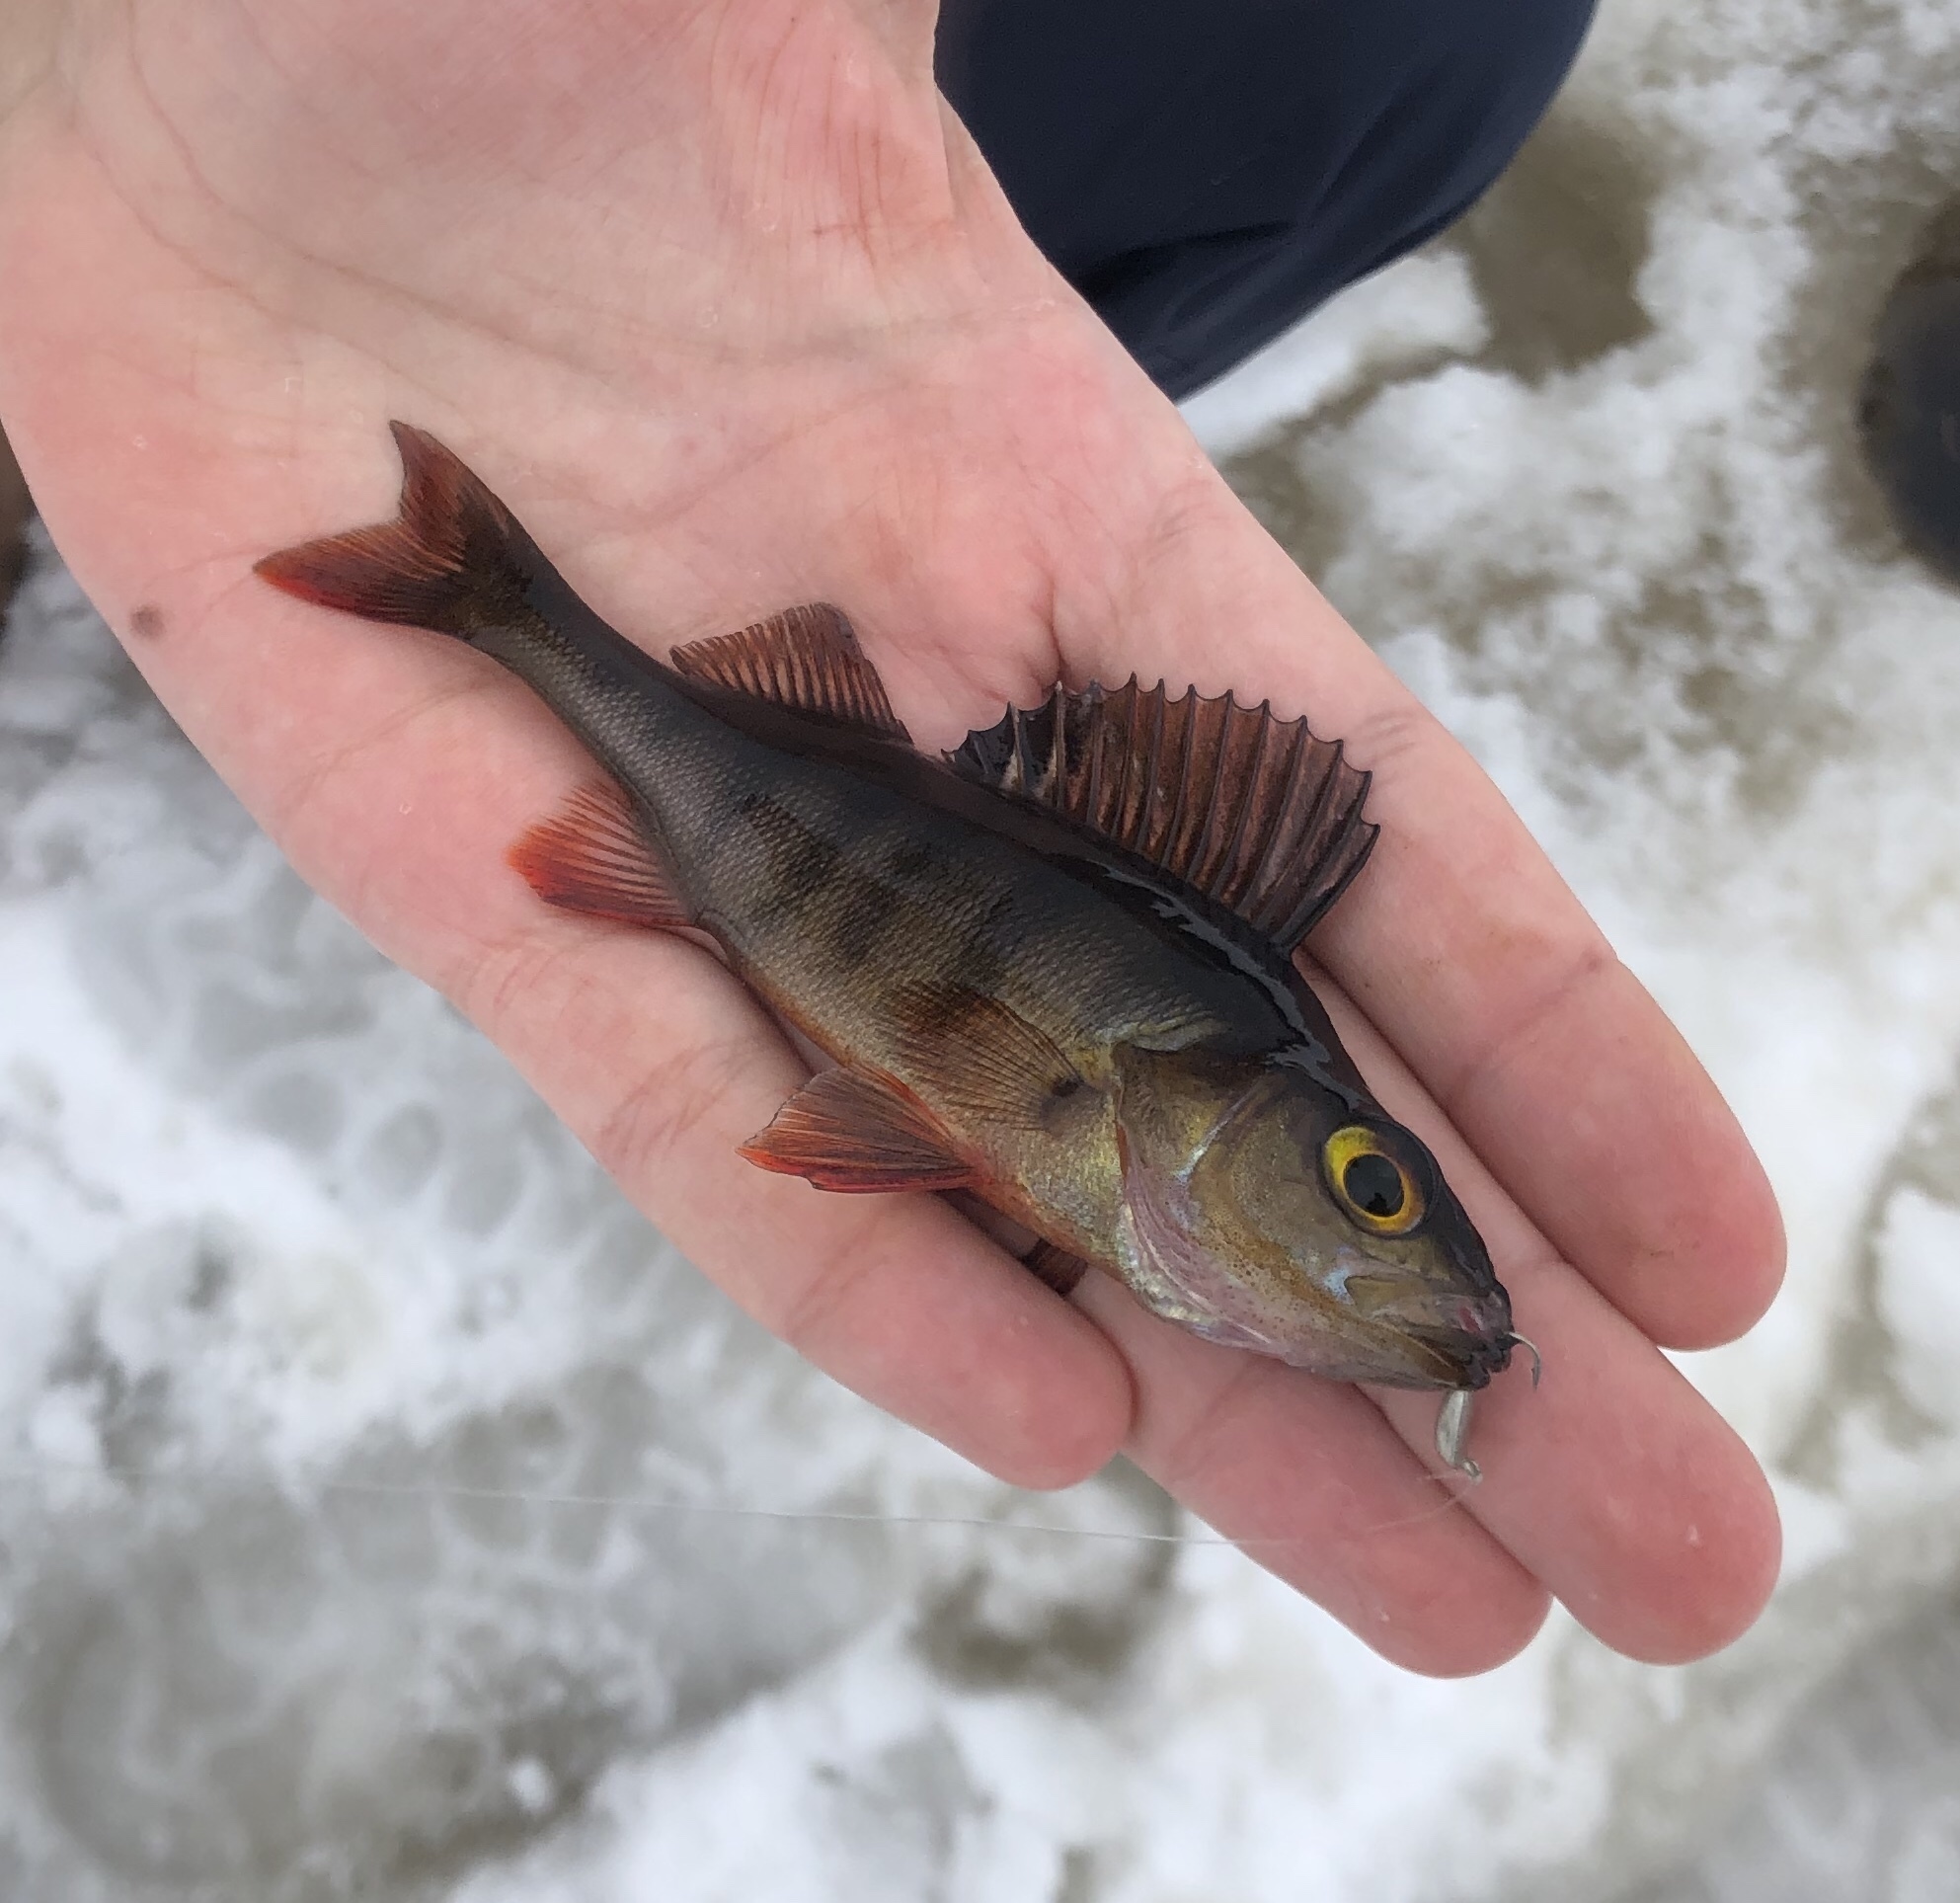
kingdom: Animalia
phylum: Chordata
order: Perciformes
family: Percidae
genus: Perca
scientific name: Perca fluviatilis
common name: Perch
